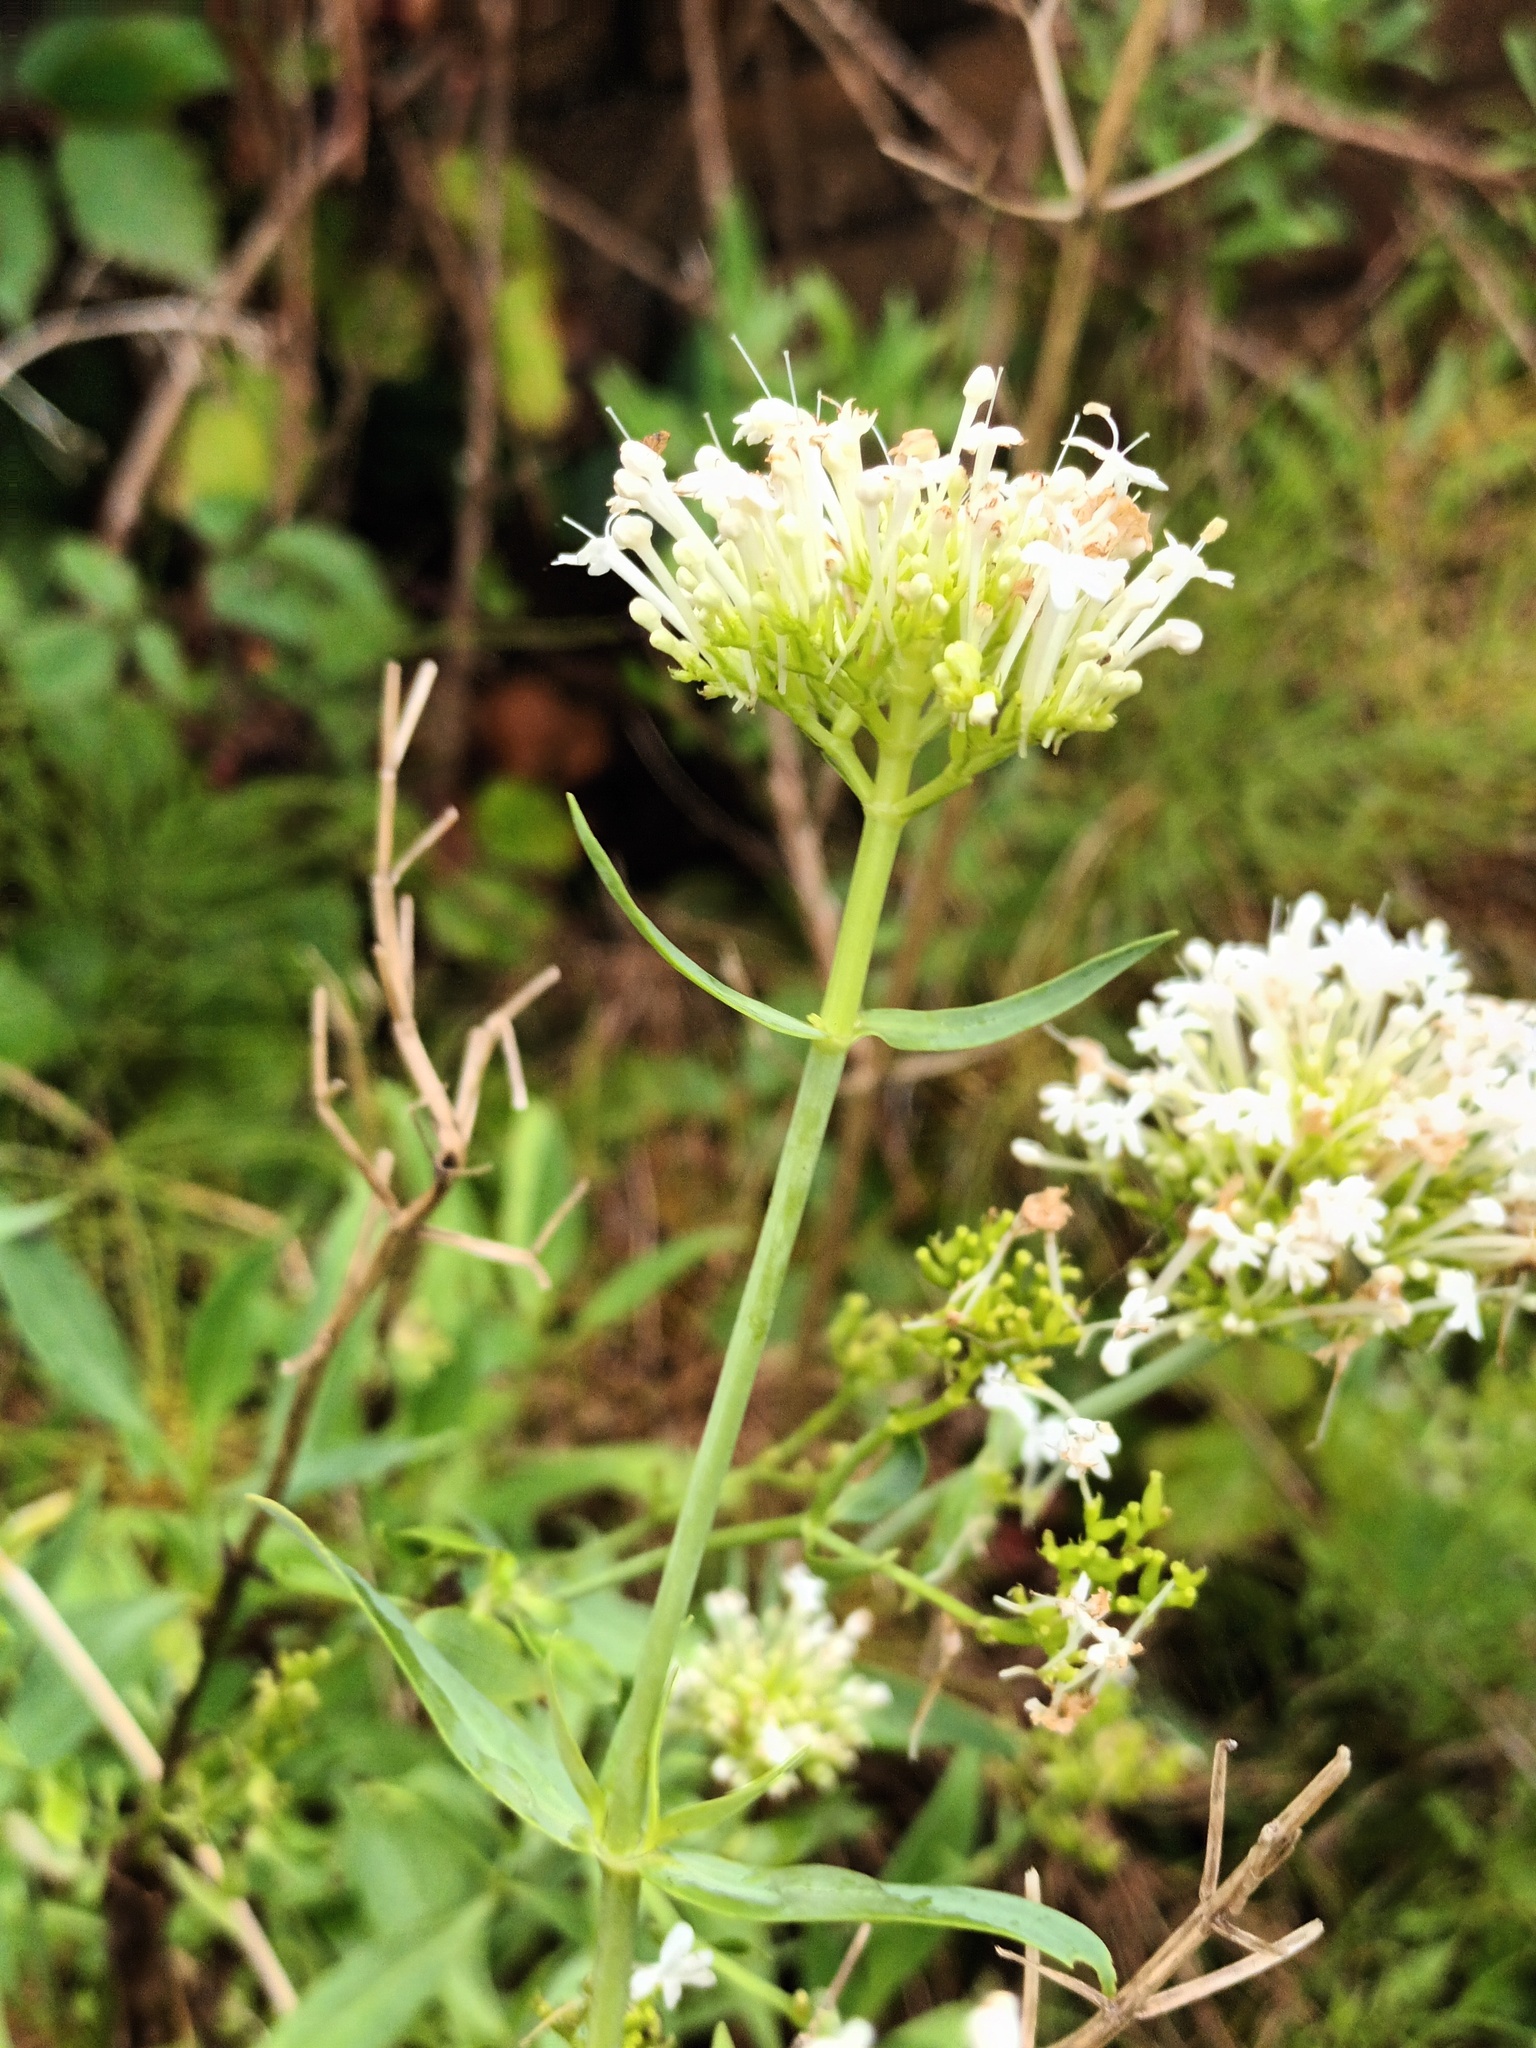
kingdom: Plantae
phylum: Tracheophyta
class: Magnoliopsida
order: Dipsacales
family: Caprifoliaceae
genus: Centranthus
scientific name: Centranthus ruber
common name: Red valerian
